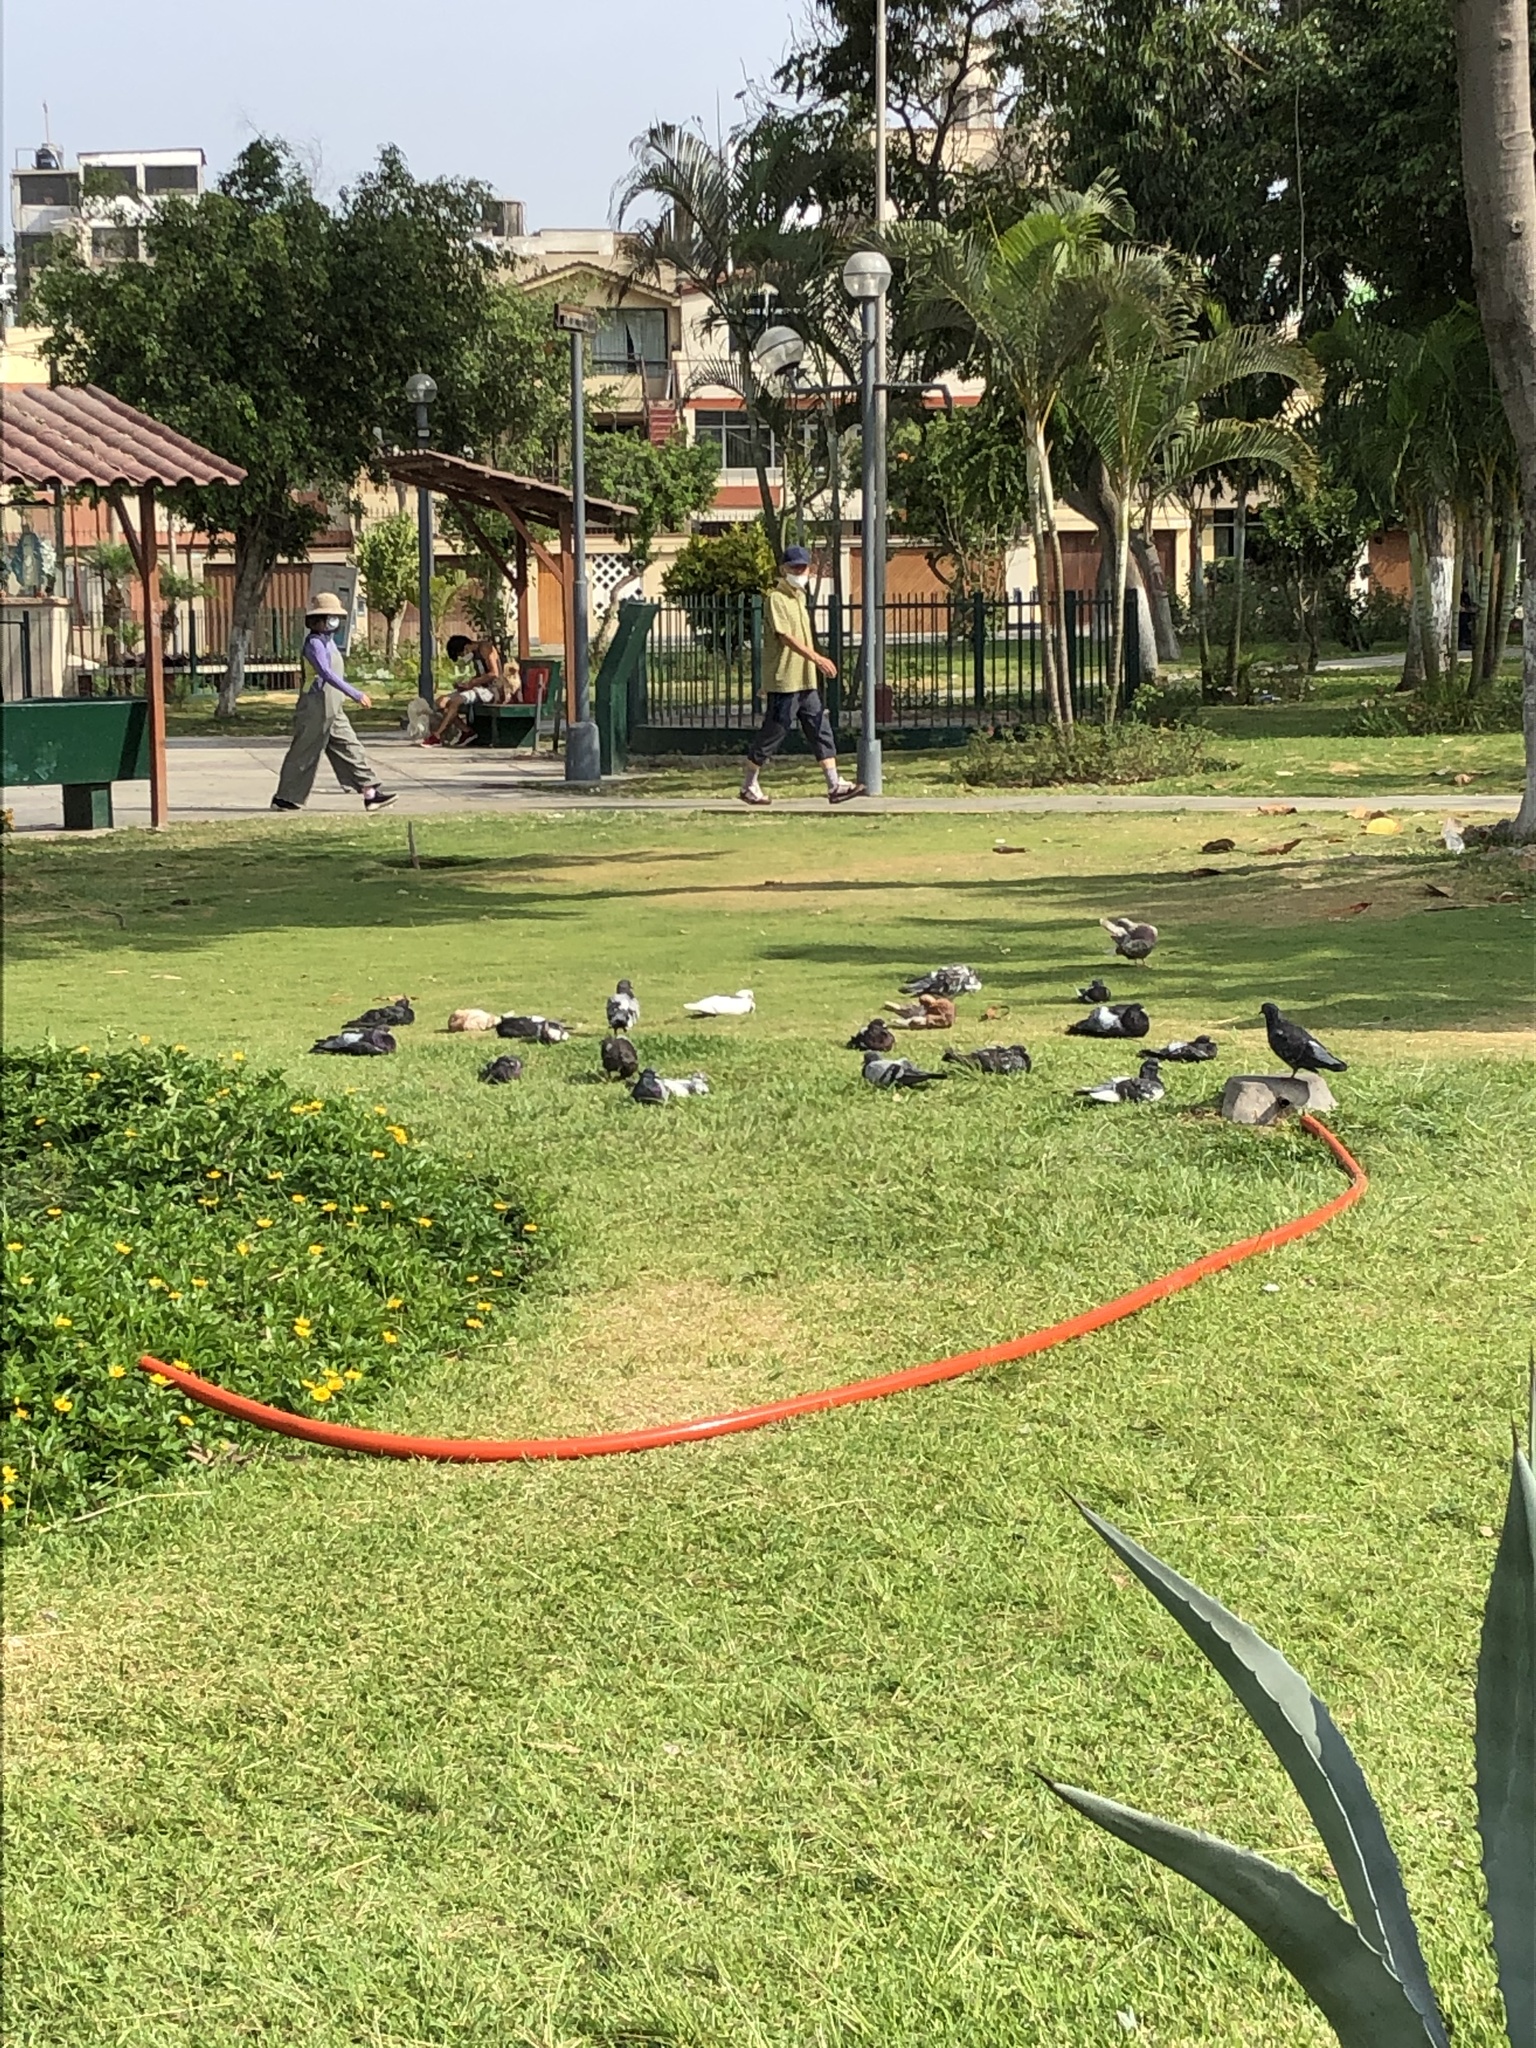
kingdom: Animalia
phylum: Chordata
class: Aves
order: Columbiformes
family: Columbidae
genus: Columba
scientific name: Columba livia
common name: Rock pigeon
